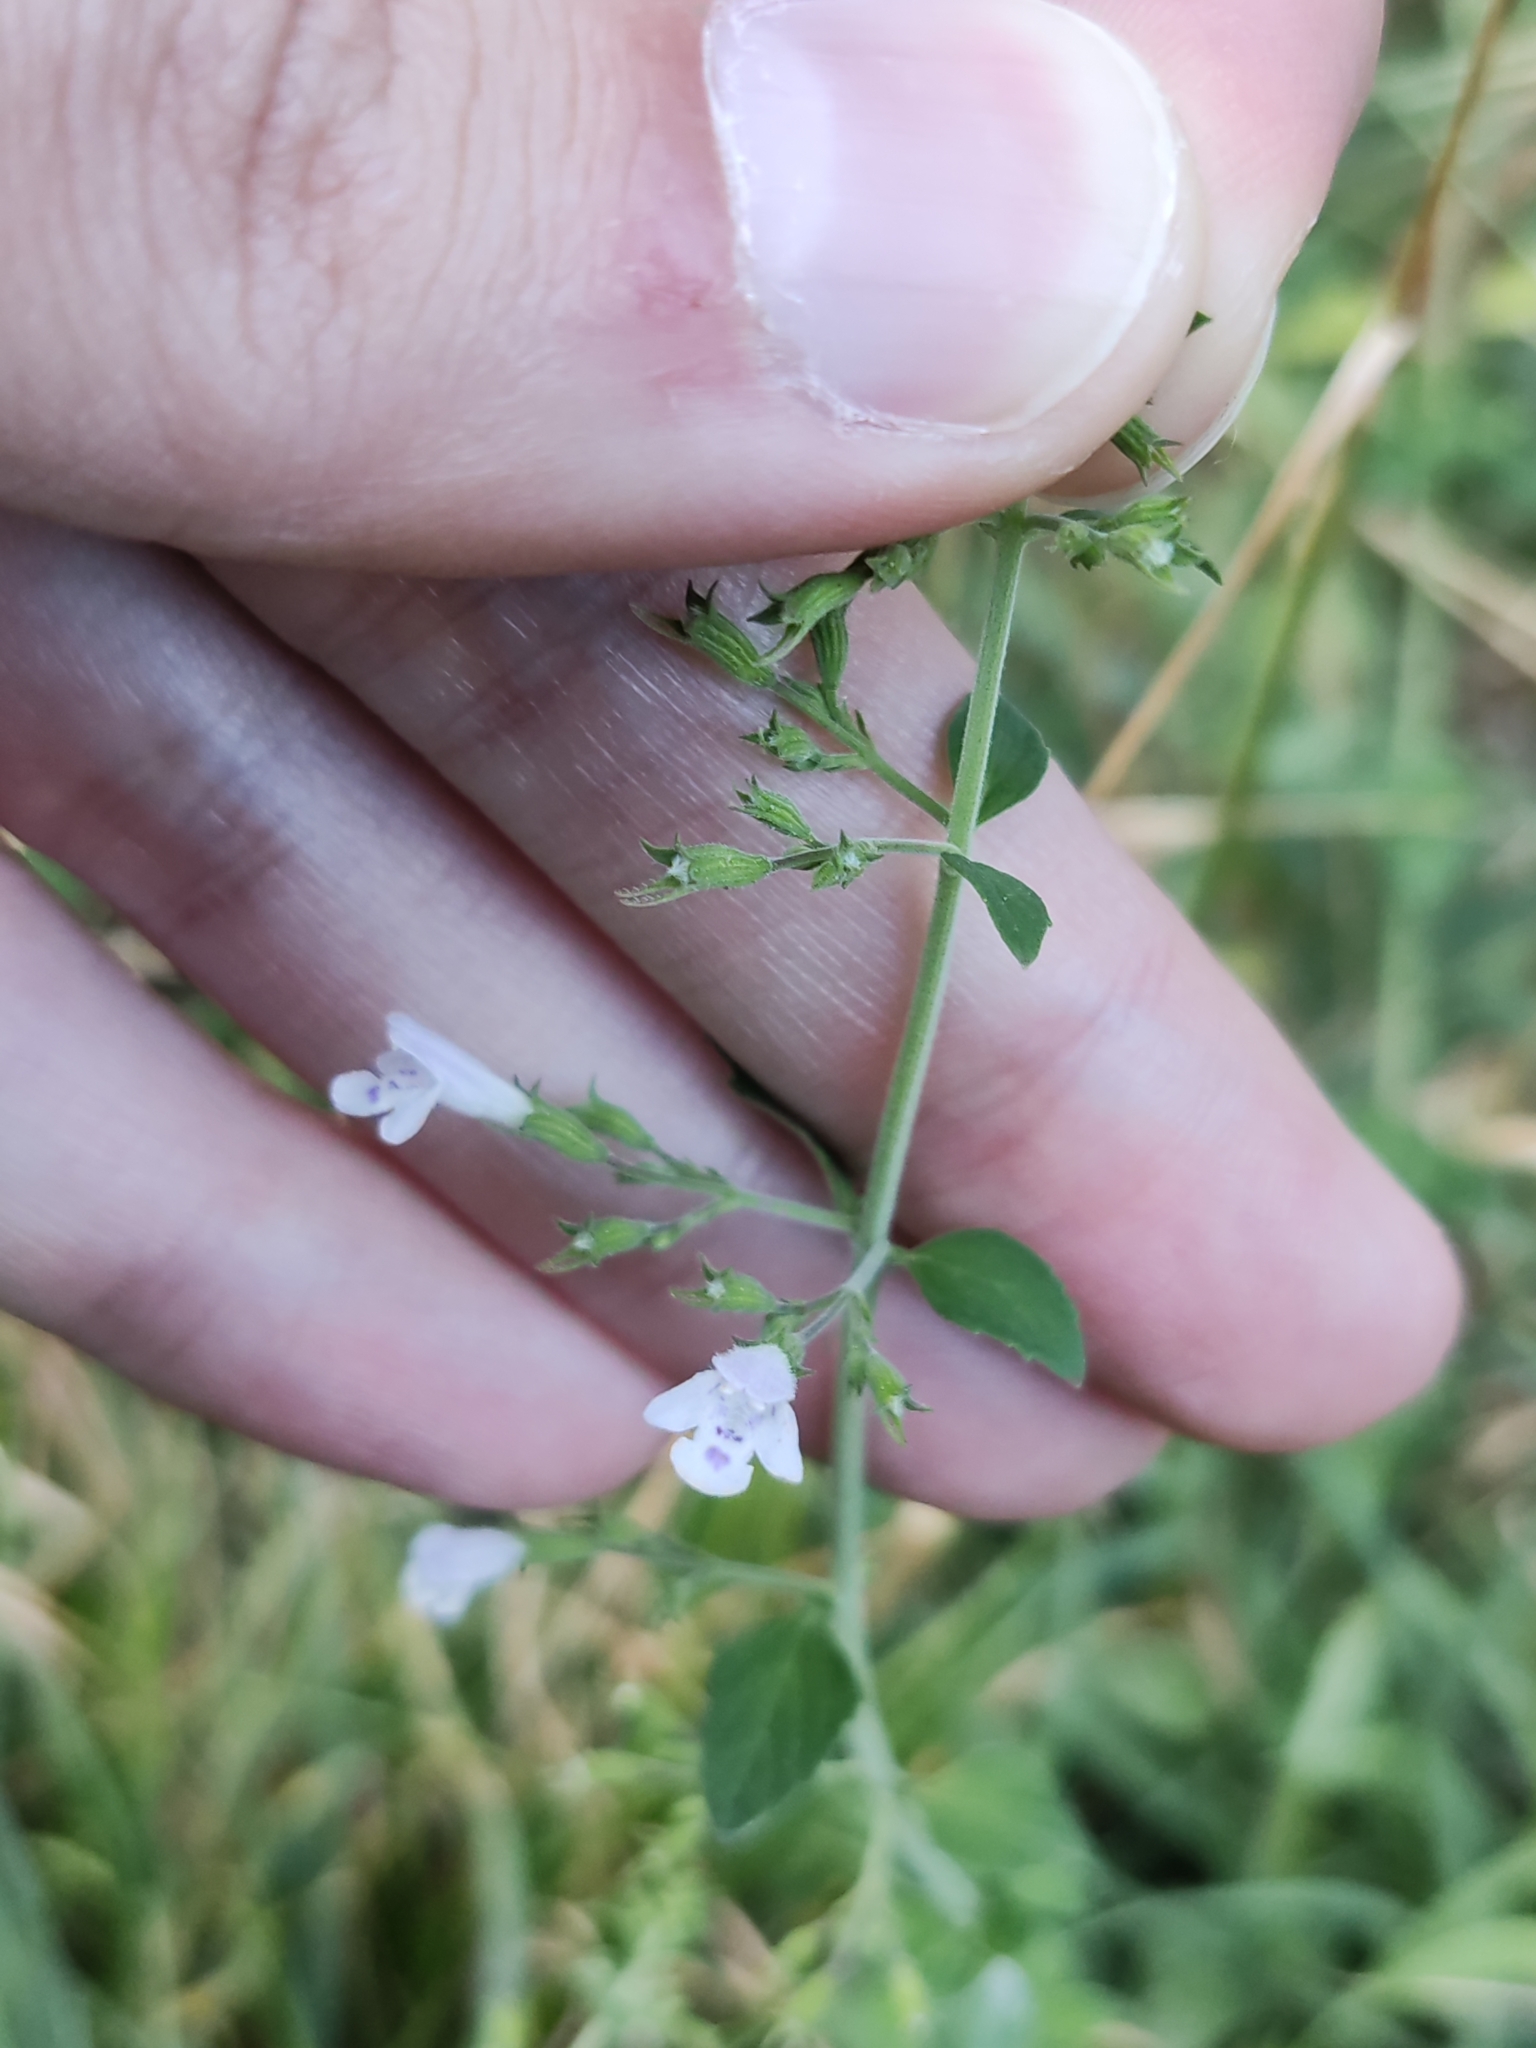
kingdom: Plantae
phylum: Tracheophyta
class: Magnoliopsida
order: Lamiales
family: Lamiaceae
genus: Clinopodium
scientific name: Clinopodium nepeta
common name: Lesser calamint
